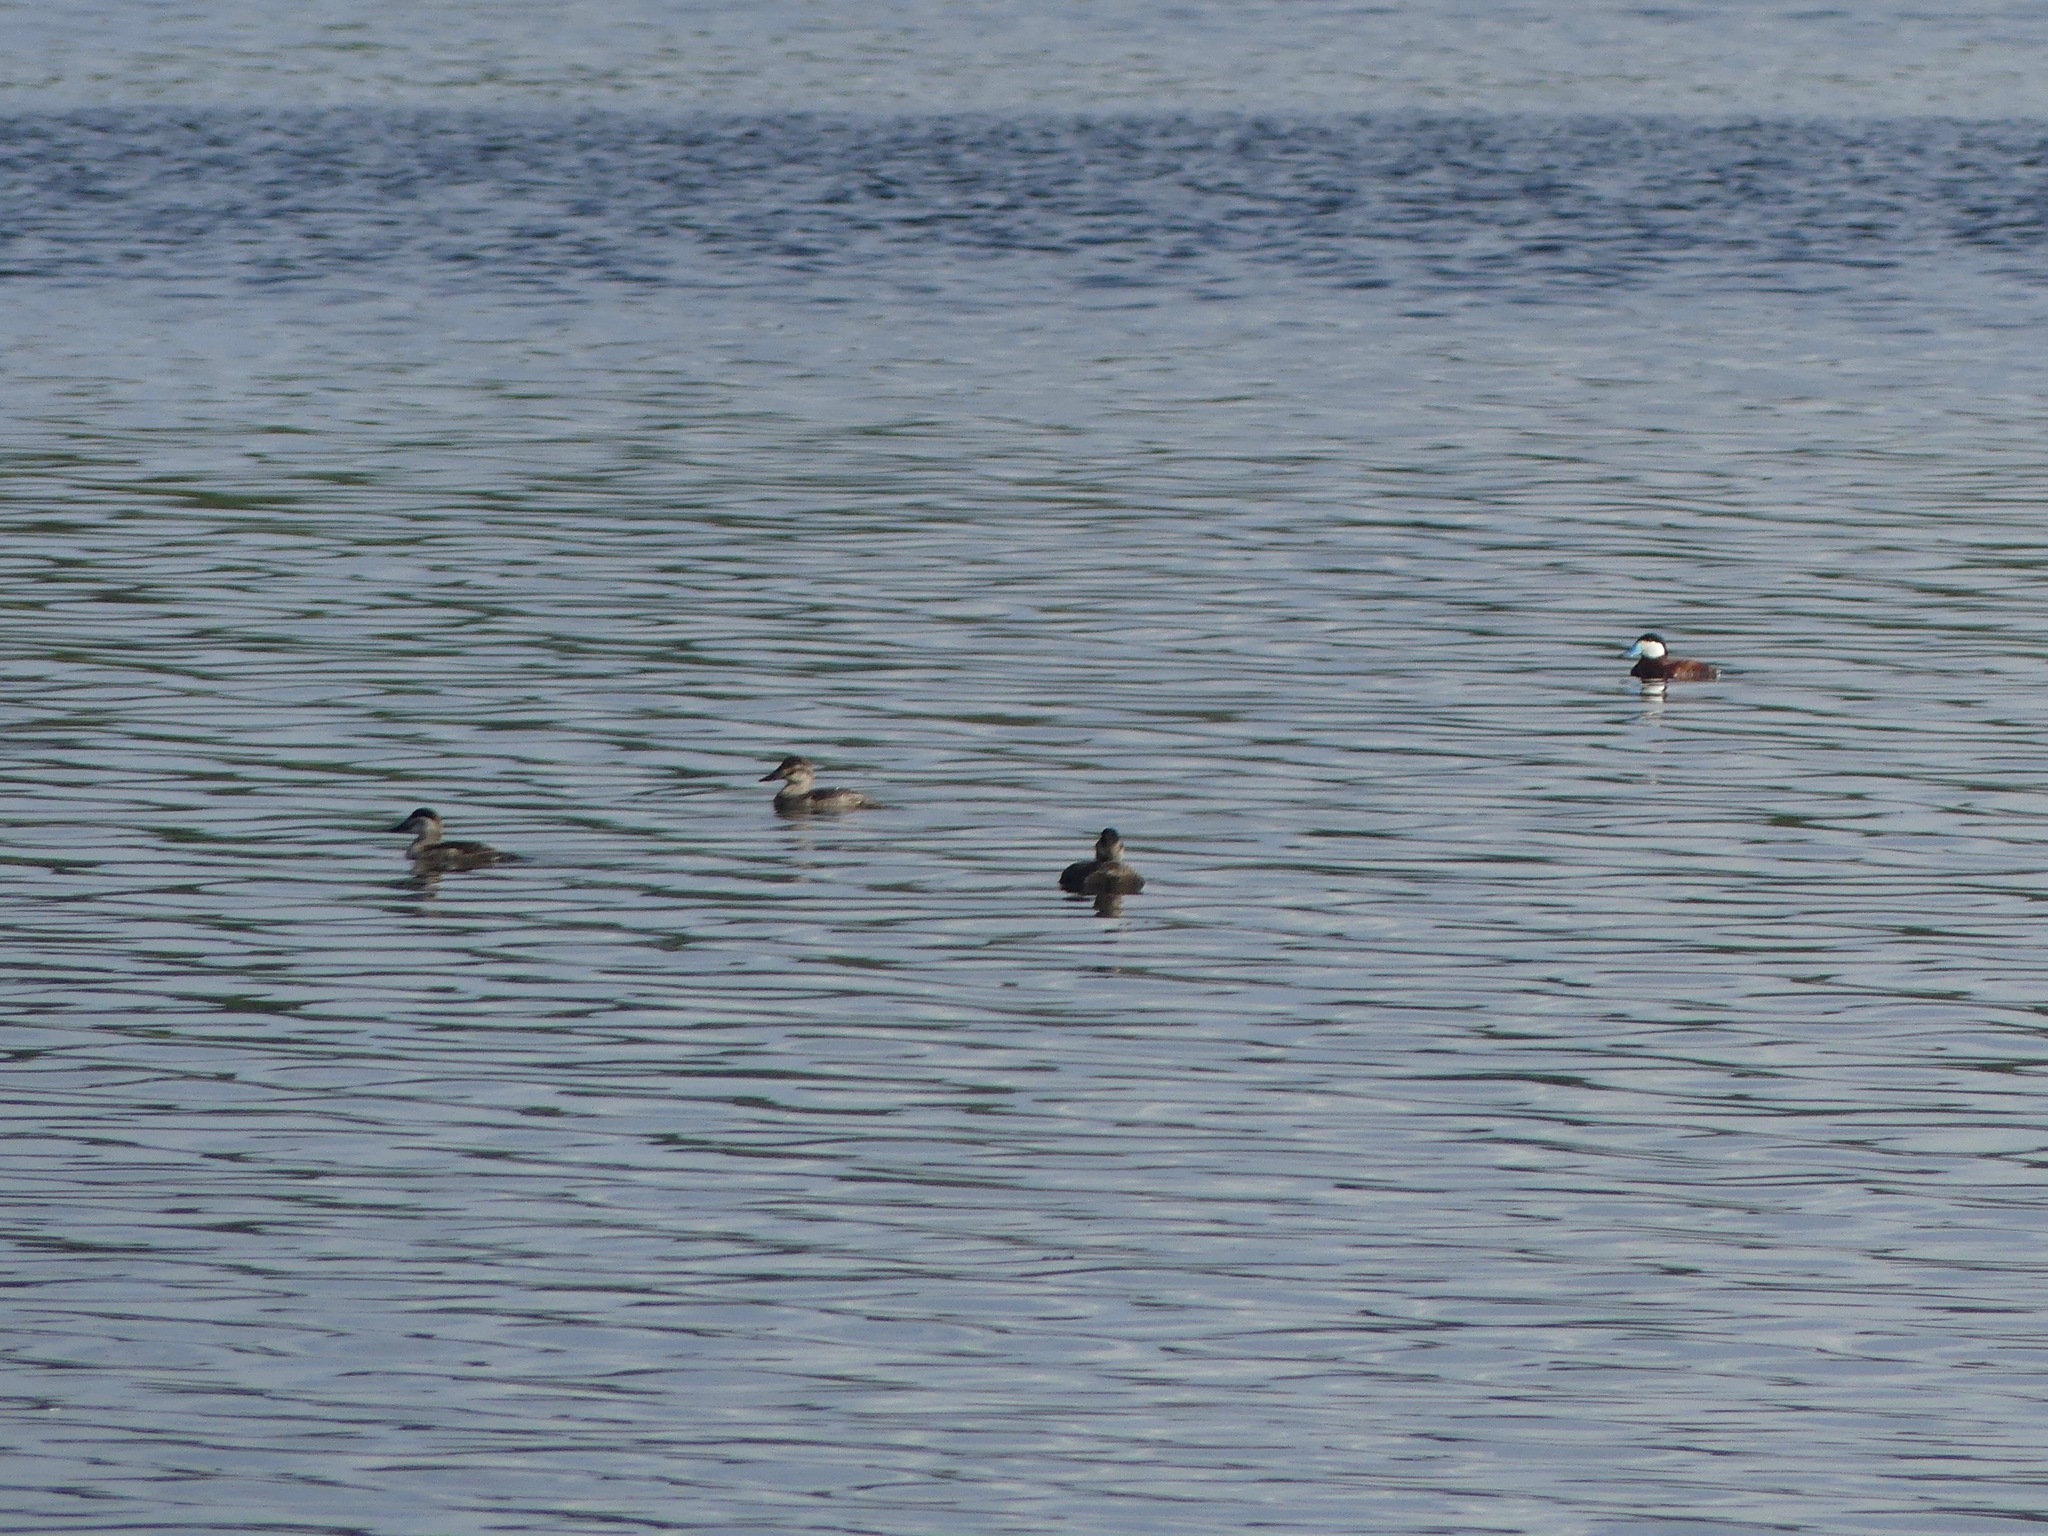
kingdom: Animalia
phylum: Chordata
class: Aves
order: Anseriformes
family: Anatidae
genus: Oxyura
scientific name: Oxyura jamaicensis
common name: Ruddy duck
